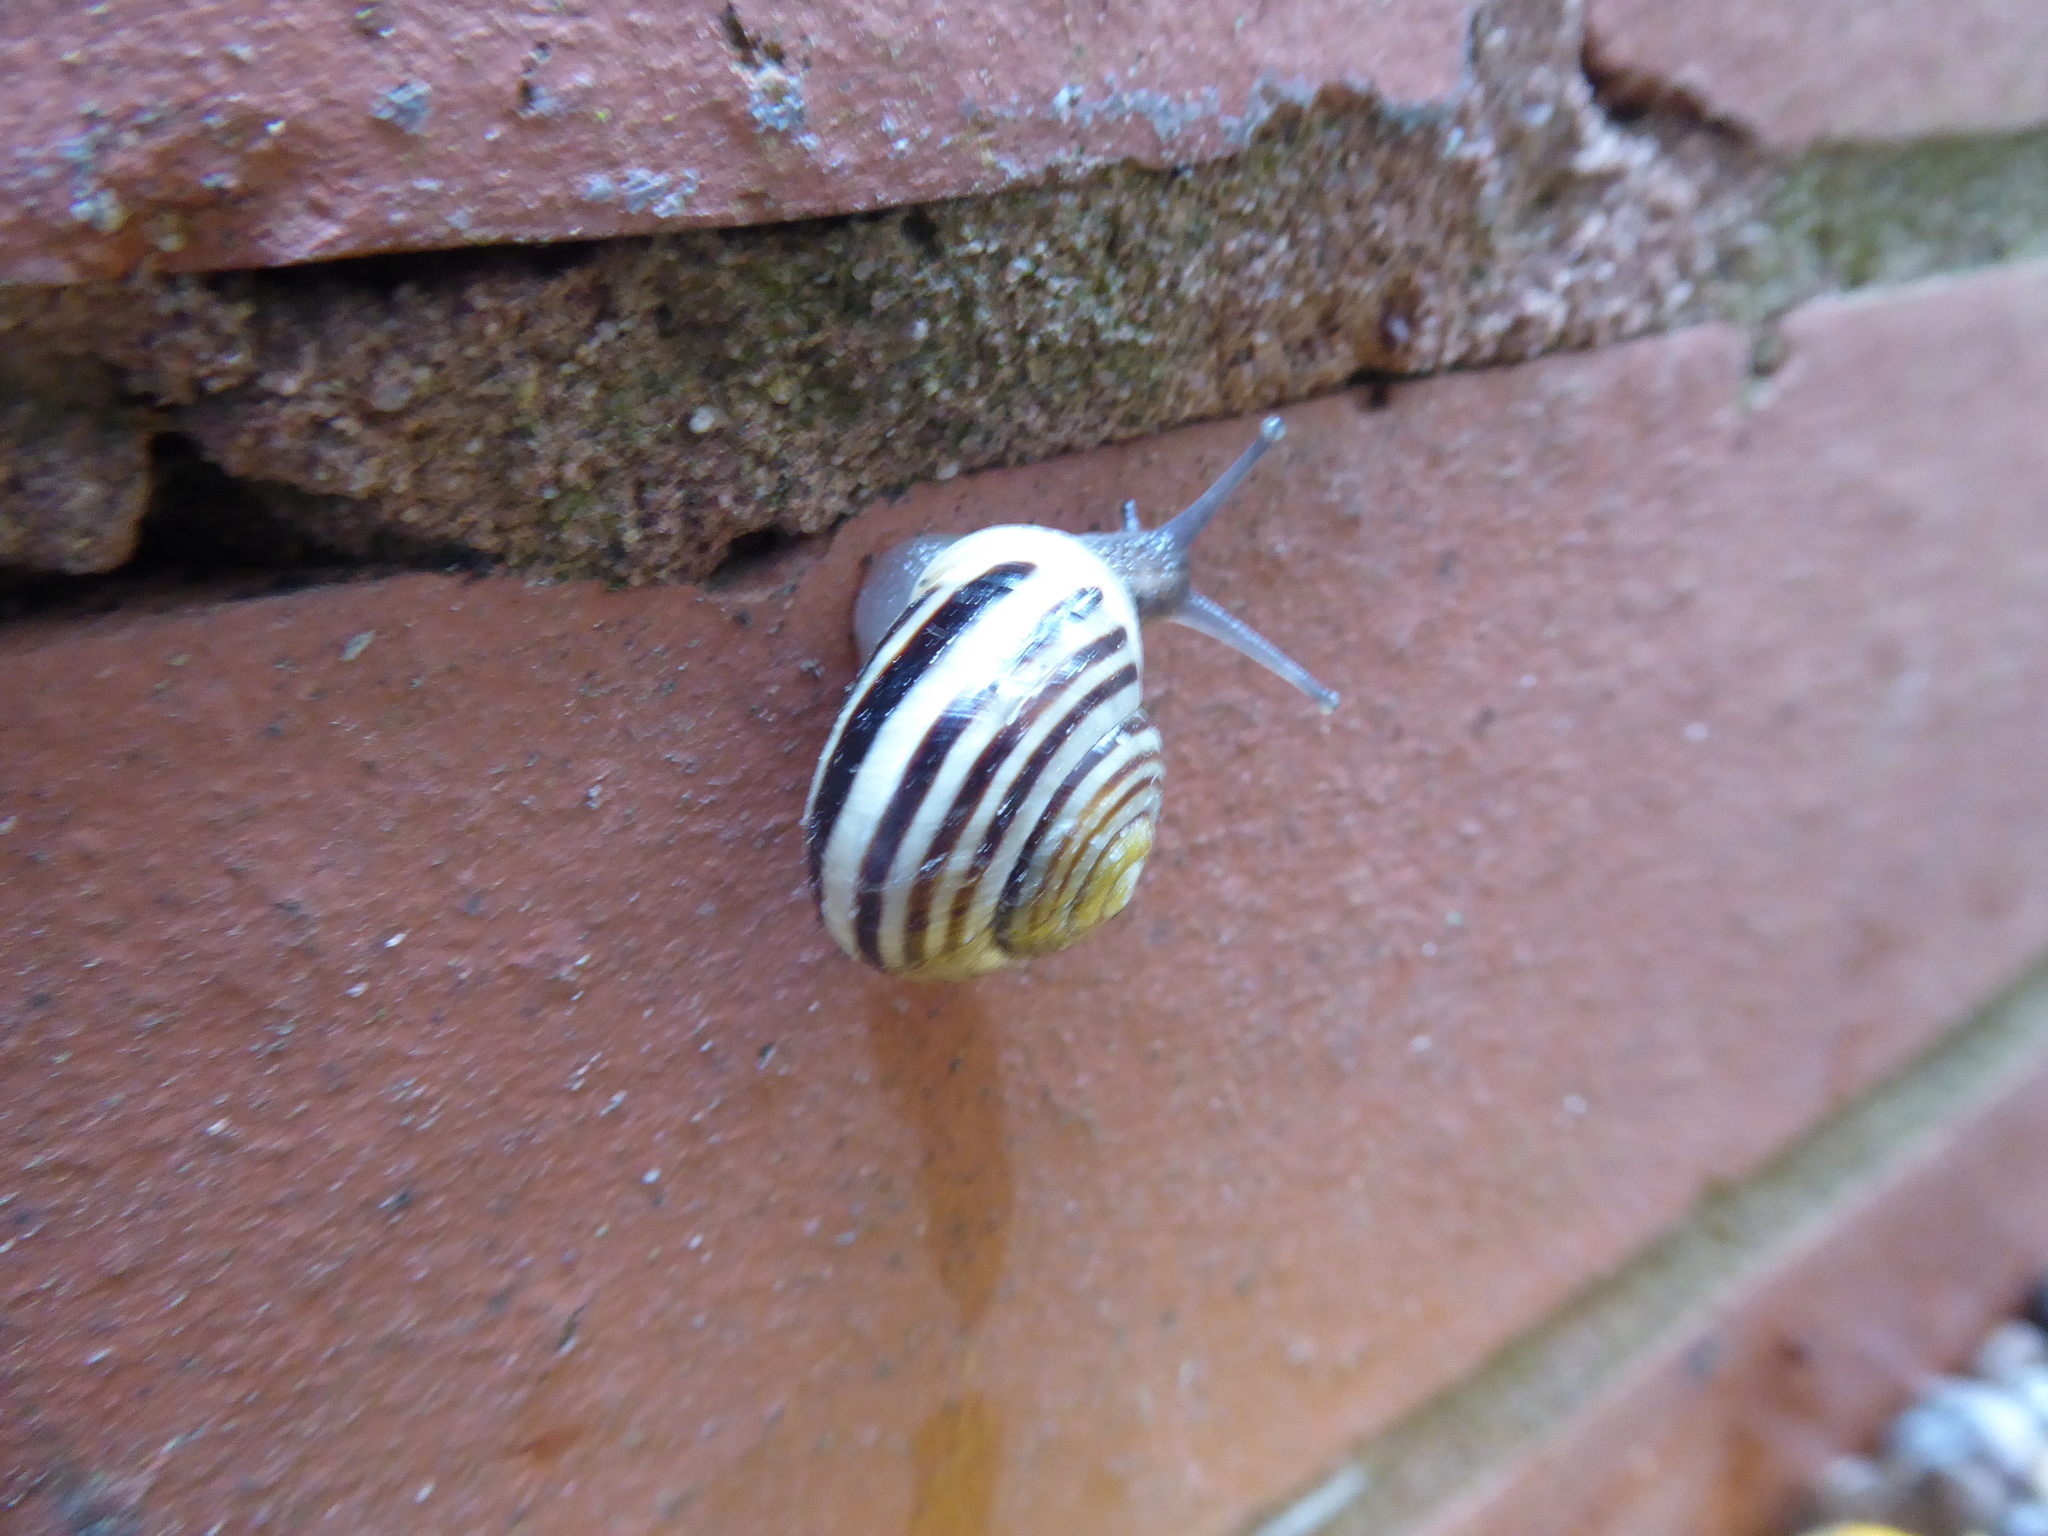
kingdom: Animalia
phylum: Mollusca
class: Gastropoda
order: Stylommatophora
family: Helicidae
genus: Cepaea
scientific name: Cepaea hortensis
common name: White-lip gardensnail
